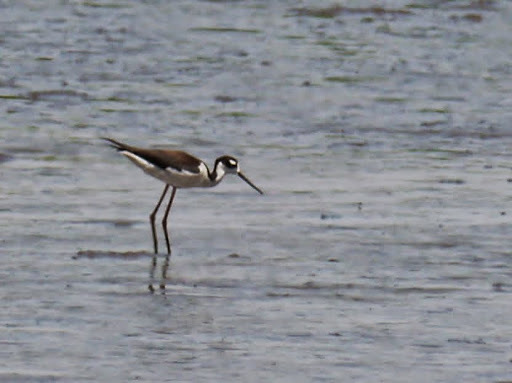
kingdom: Animalia
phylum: Chordata
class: Aves
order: Charadriiformes
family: Recurvirostridae
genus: Himantopus
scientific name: Himantopus mexicanus
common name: Black-necked stilt
